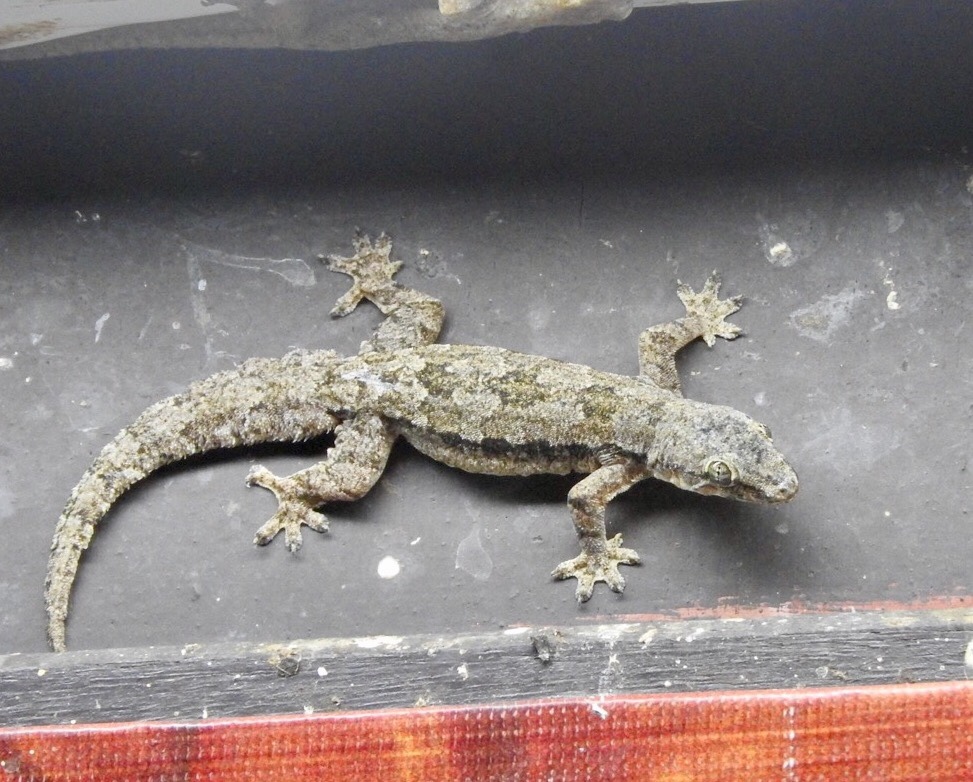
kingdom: Animalia
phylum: Chordata
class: Squamata
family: Gekkonidae
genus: Hemidactylus
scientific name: Hemidactylus platyurus
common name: Flat-tailed house gecko
